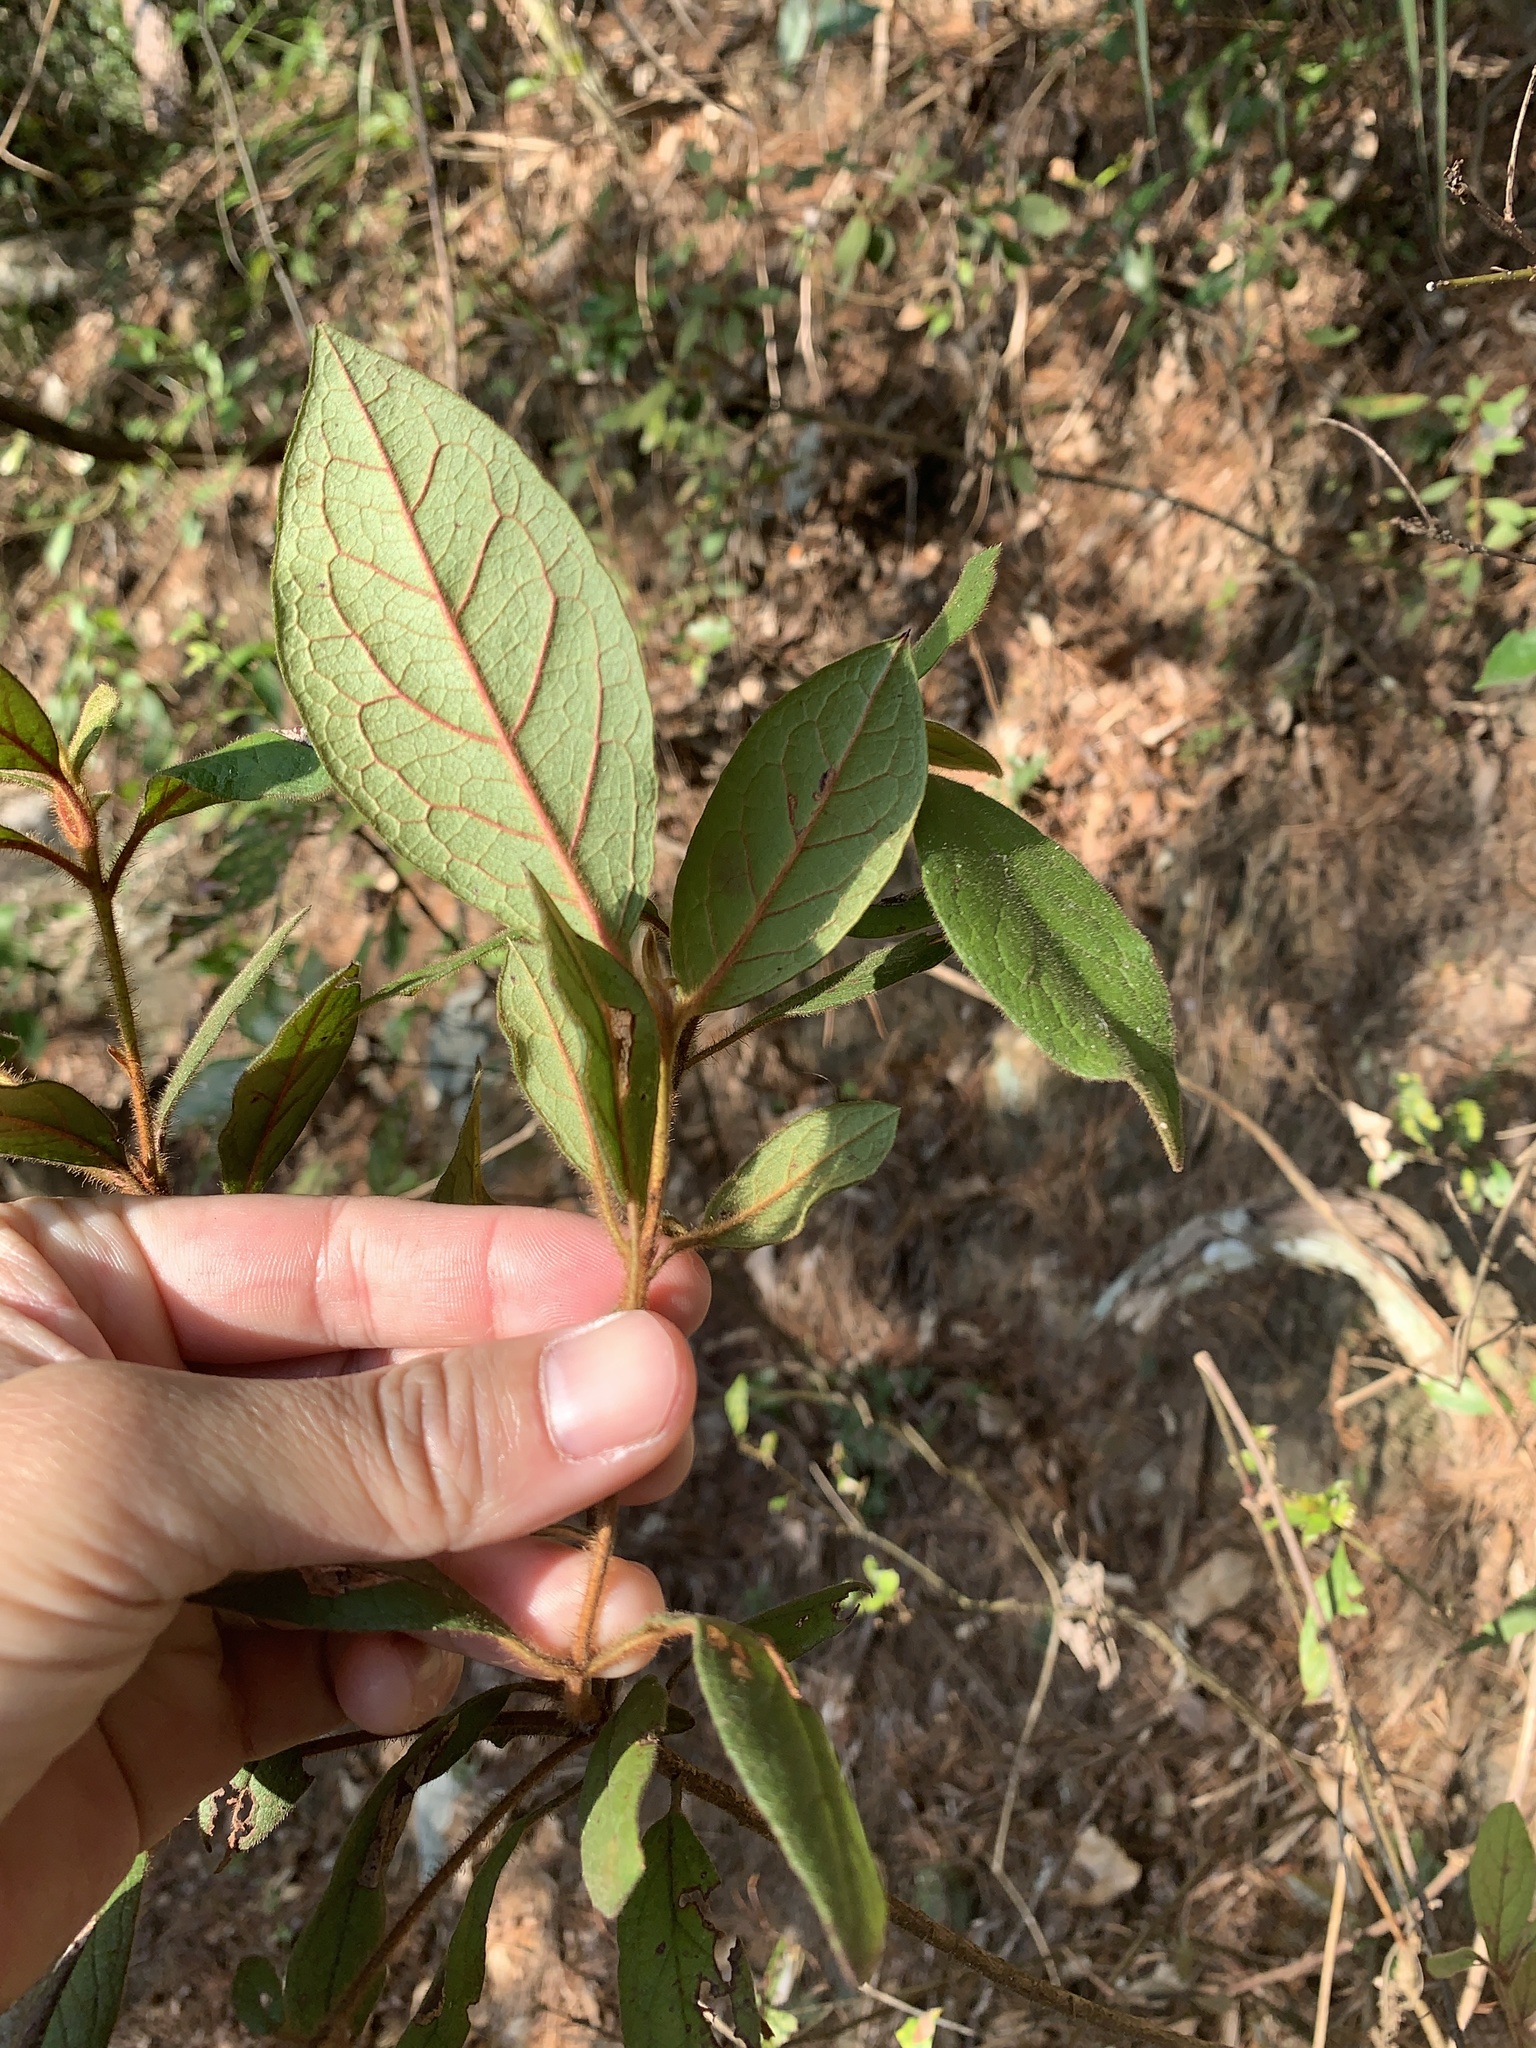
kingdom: Plantae
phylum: Tracheophyta
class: Magnoliopsida
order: Ericales
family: Ericaceae
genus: Rhododendron
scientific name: Rhododendron oldhamii
